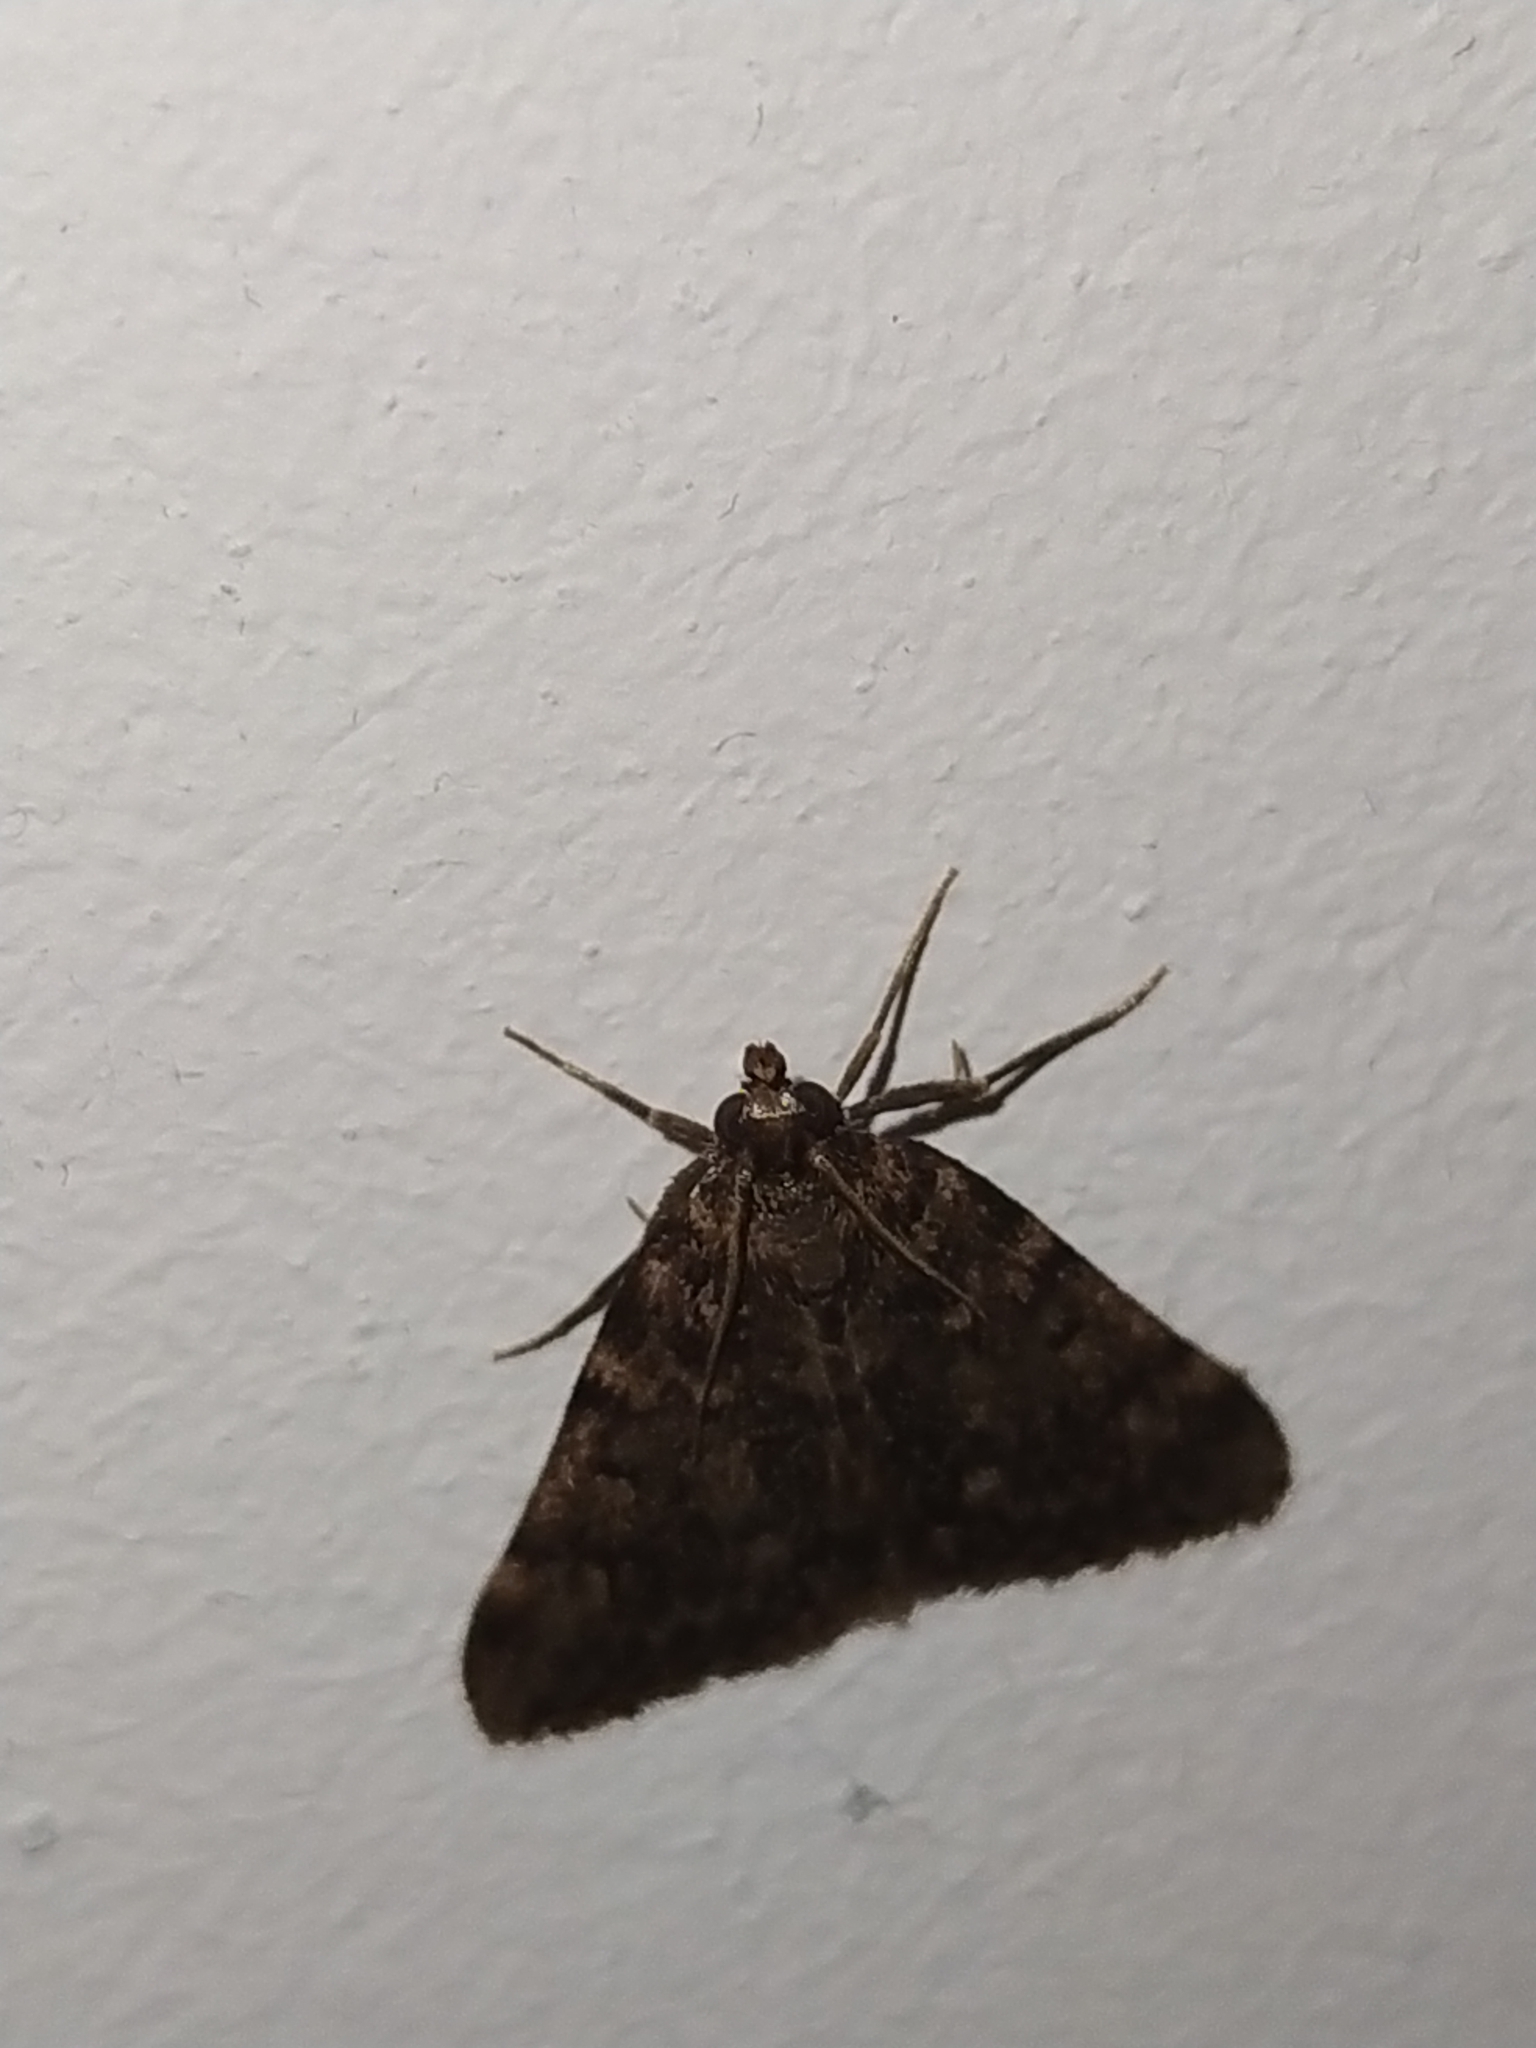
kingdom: Animalia
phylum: Arthropoda
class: Insecta
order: Lepidoptera
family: Pyralidae
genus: Aglossa
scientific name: Aglossa pinguinalis
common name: Large tabby
